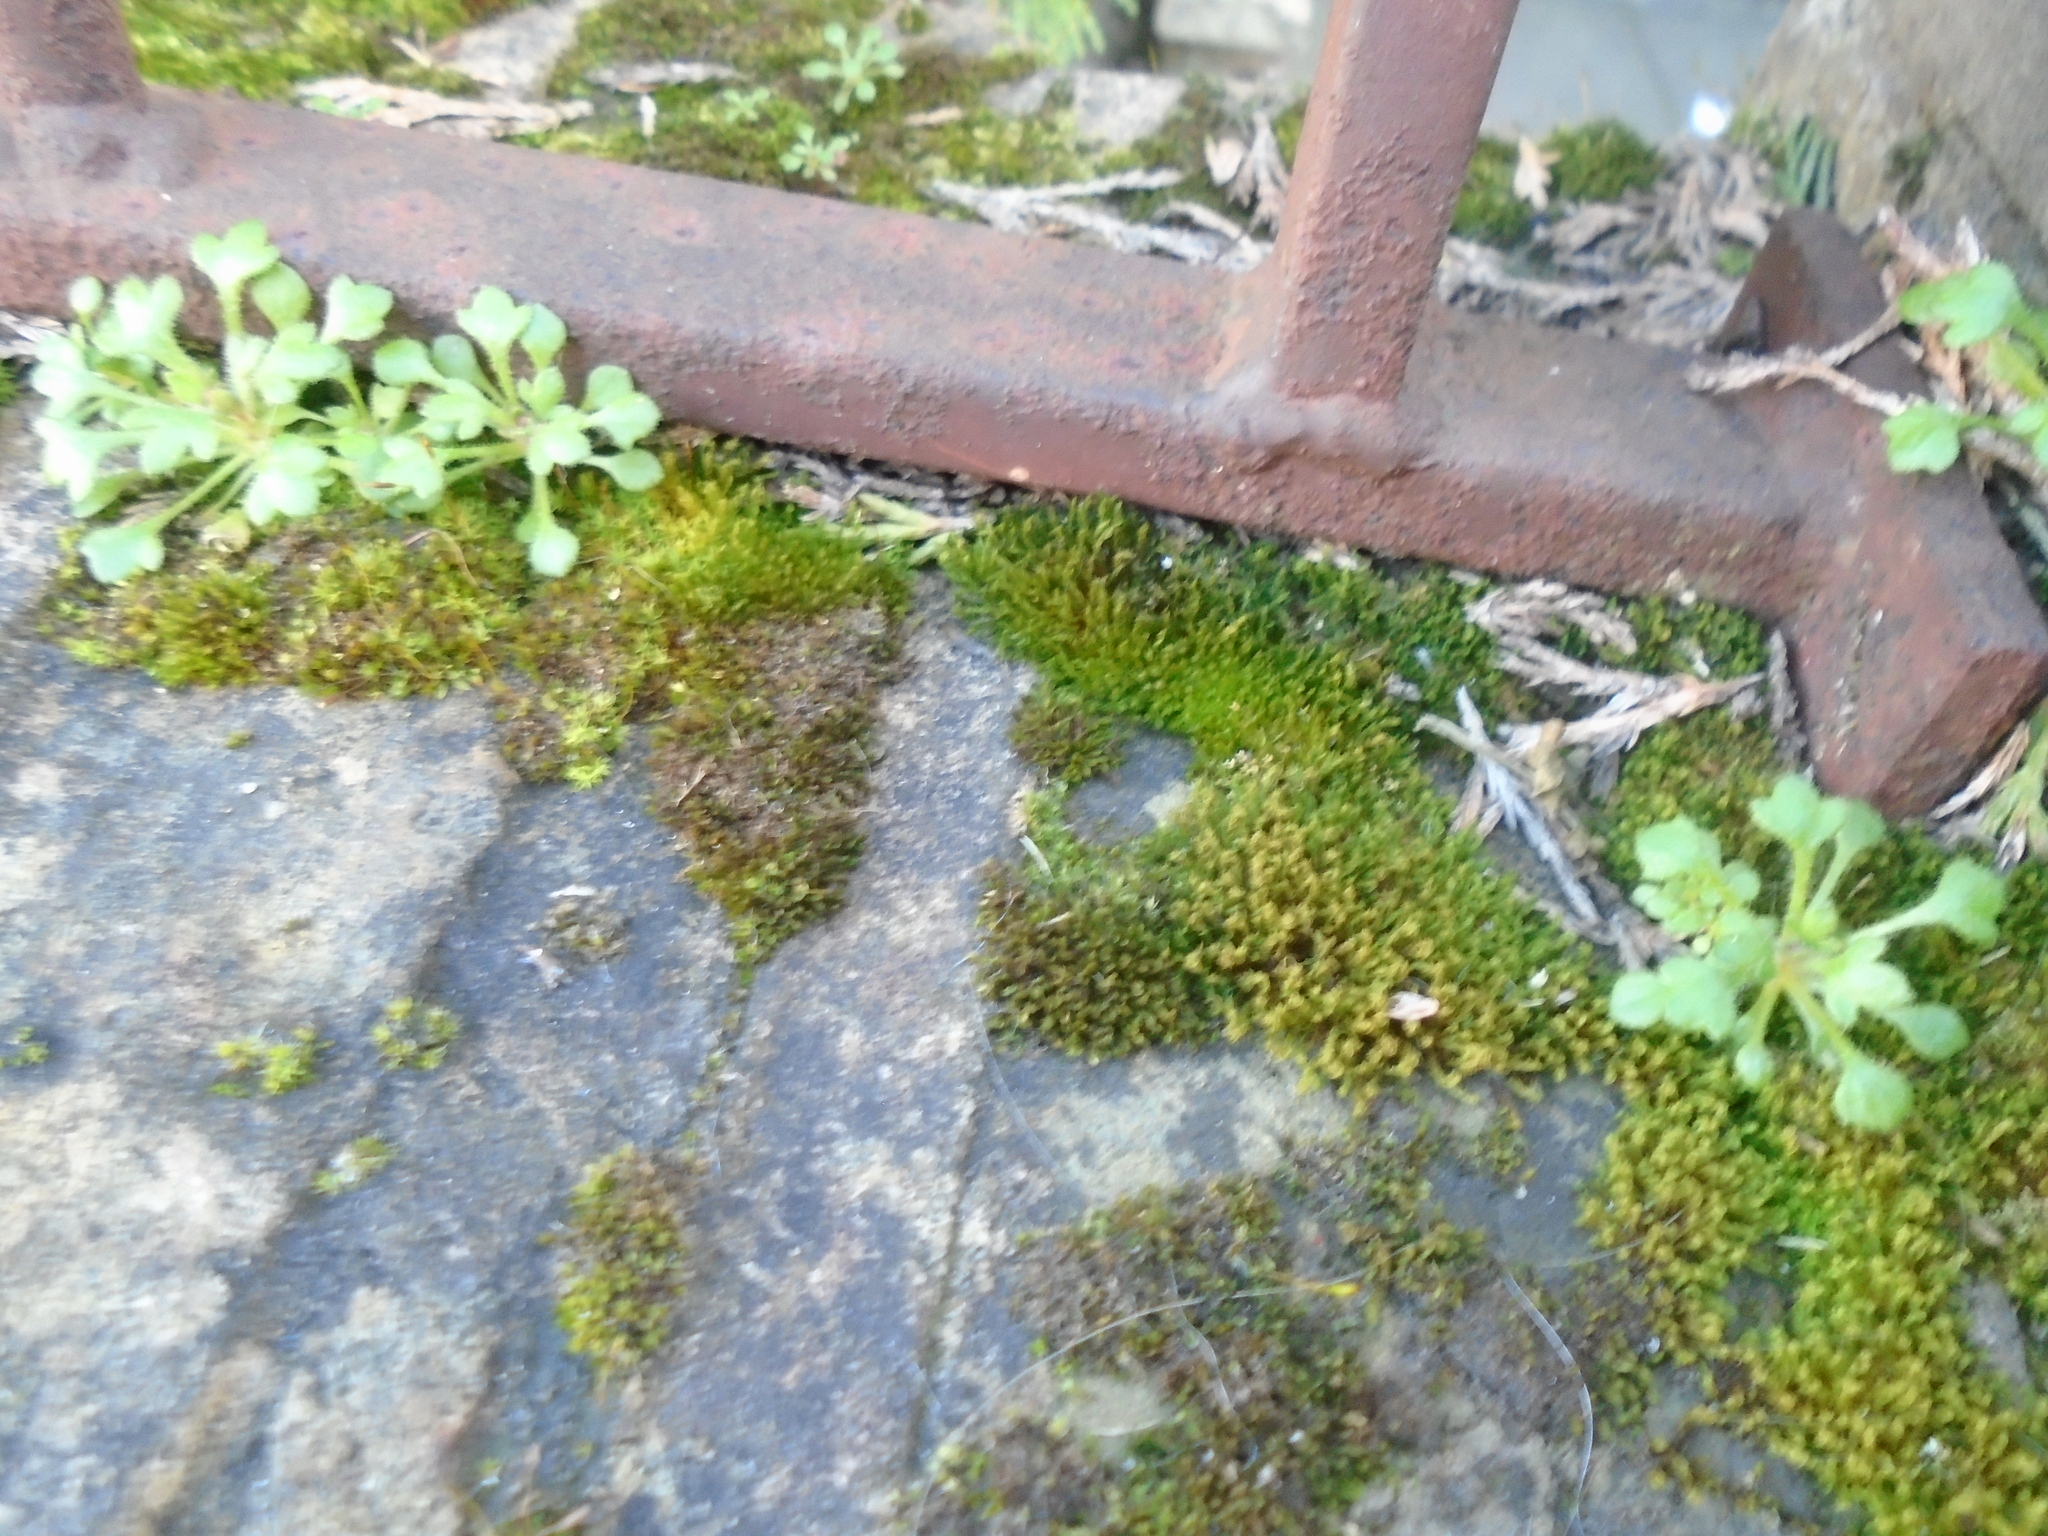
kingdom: Plantae
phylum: Tracheophyta
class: Magnoliopsida
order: Saxifragales
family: Saxifragaceae
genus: Saxifraga
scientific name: Saxifraga tridactylites
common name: Rue-leaved saxifrage
